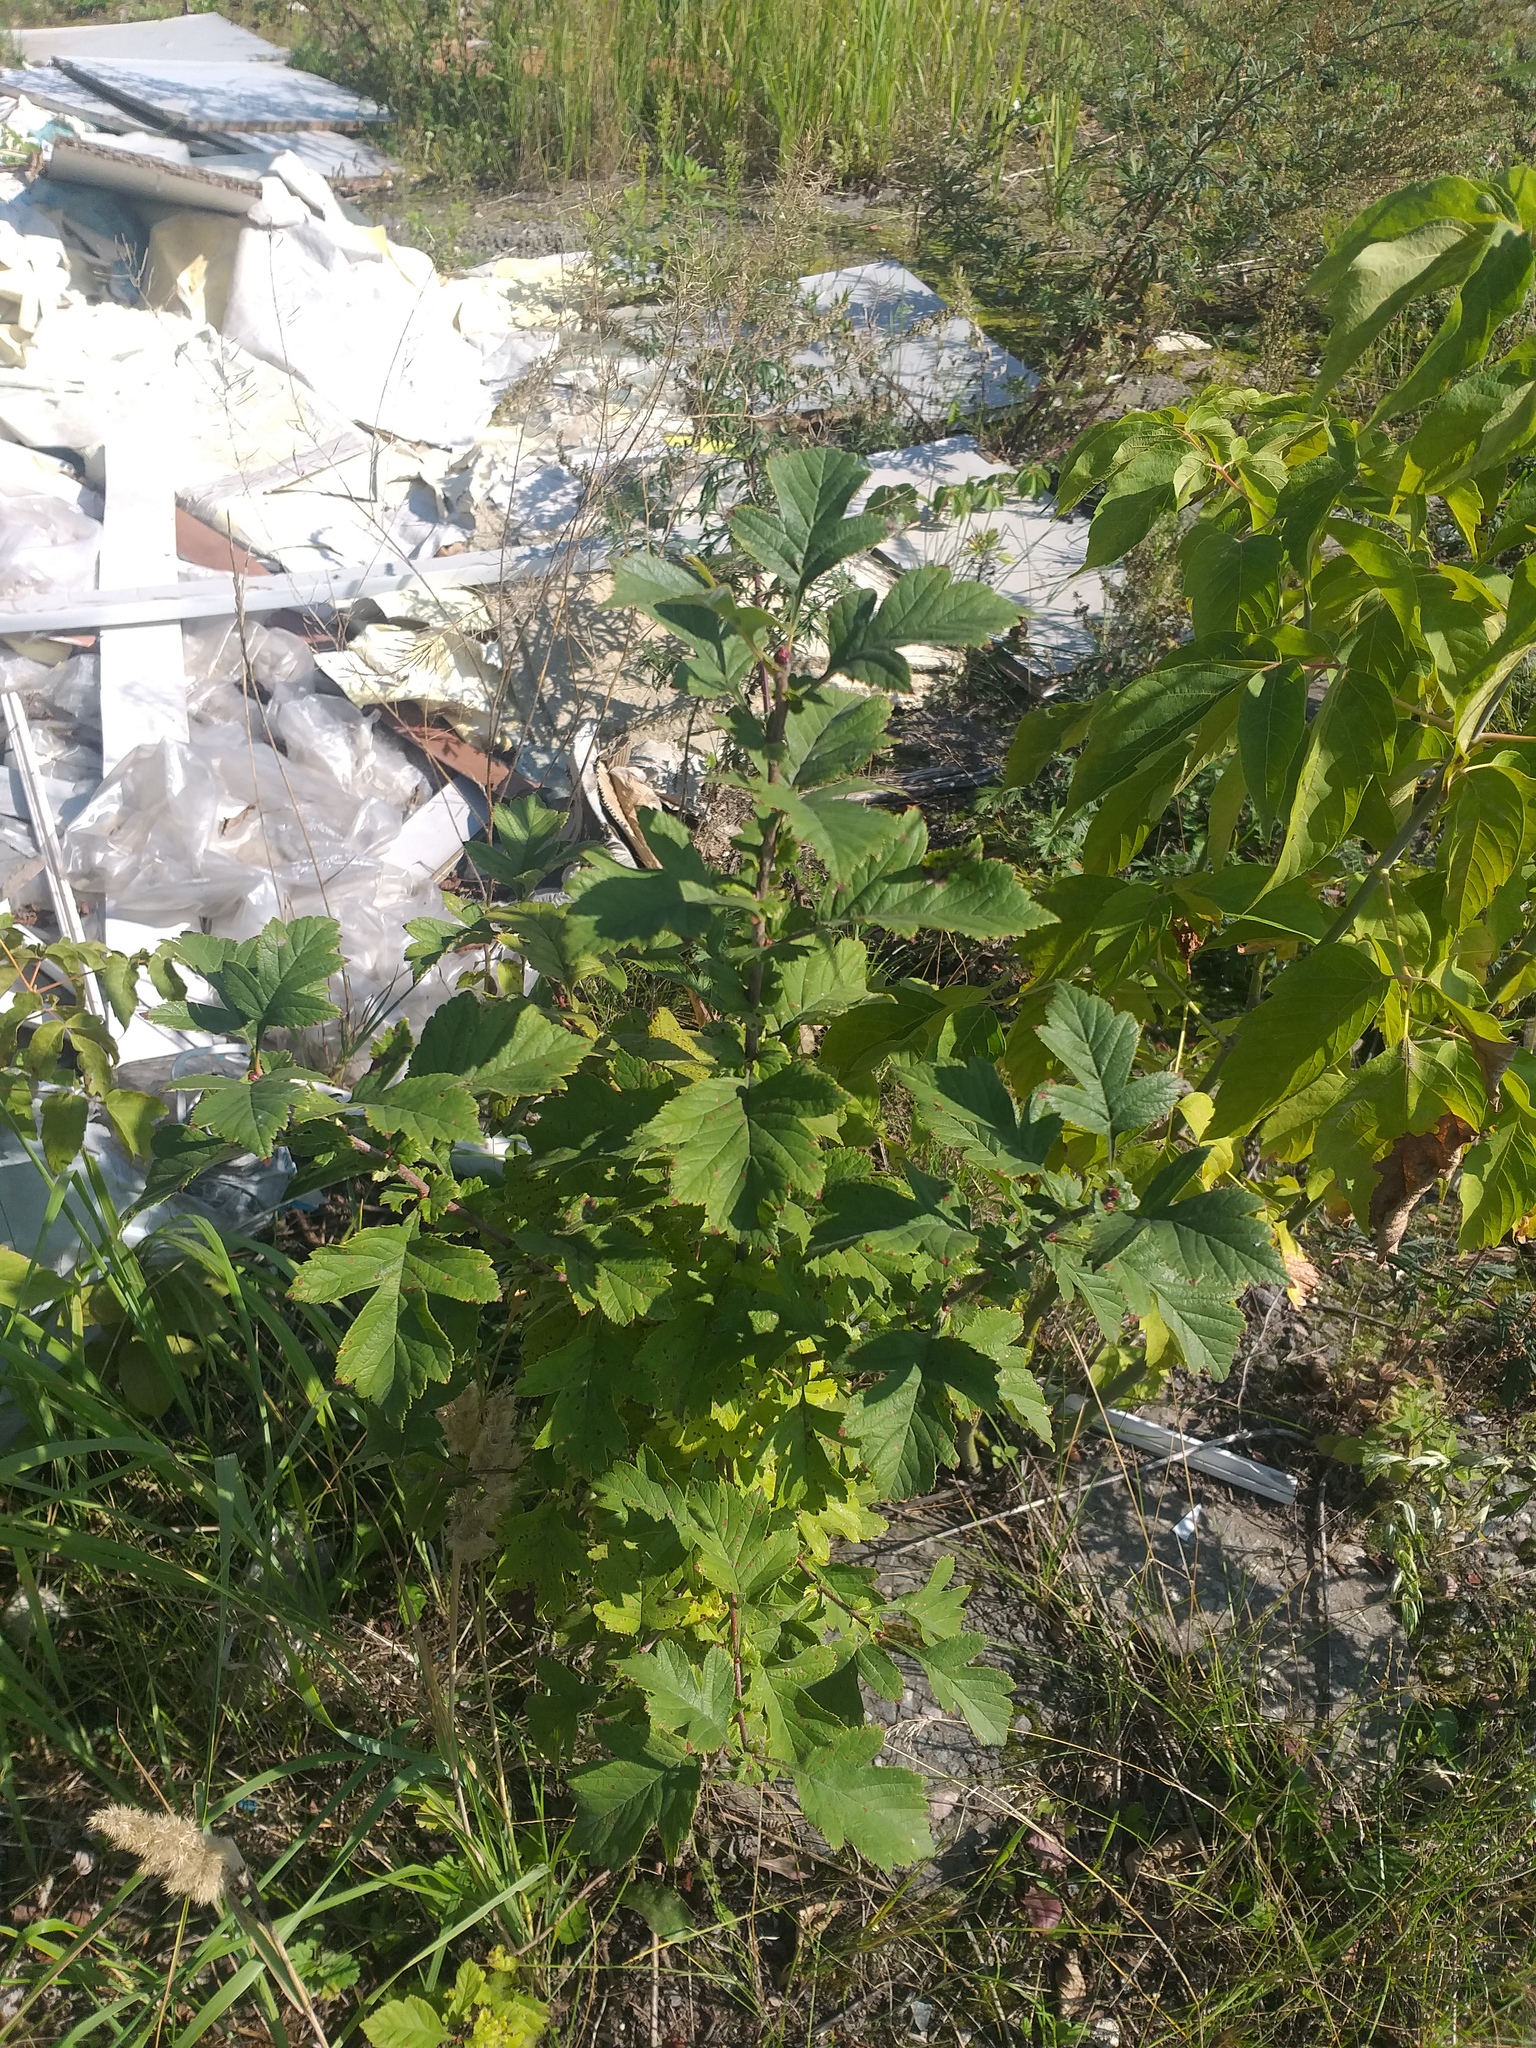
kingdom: Plantae
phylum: Tracheophyta
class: Magnoliopsida
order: Rosales
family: Rosaceae
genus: Crataegus
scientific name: Crataegus maximowiczii
